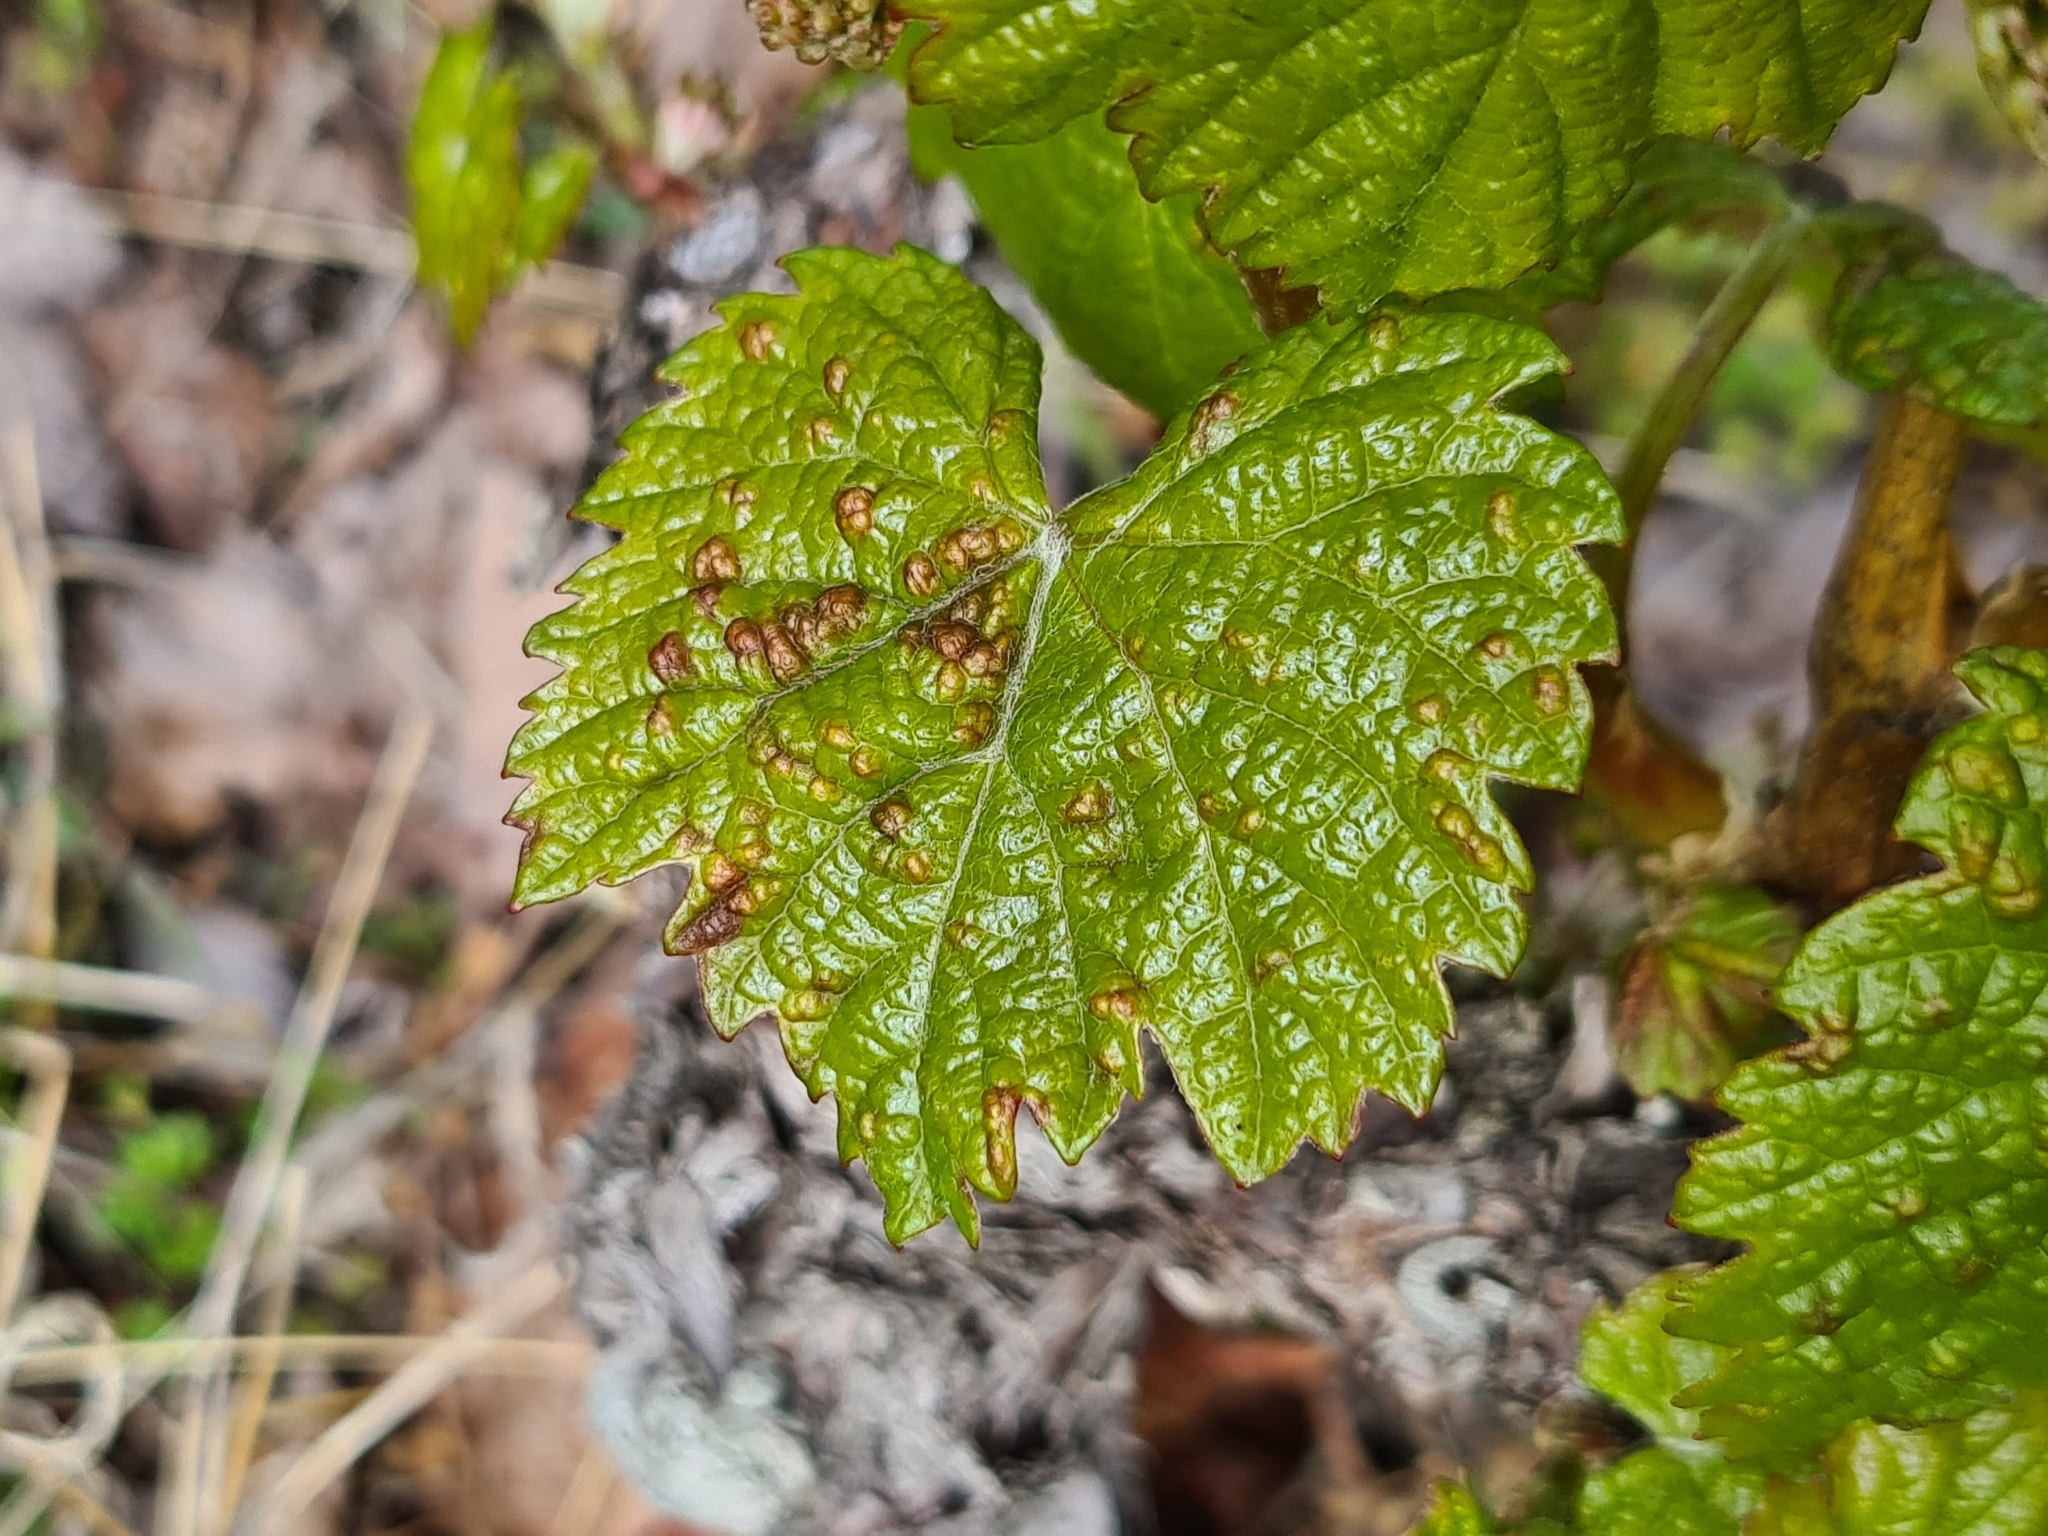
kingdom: Plantae
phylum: Tracheophyta
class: Magnoliopsida
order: Vitales
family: Vitaceae
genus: Vitis
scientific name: Vitis vinifera
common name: Grape-vine
